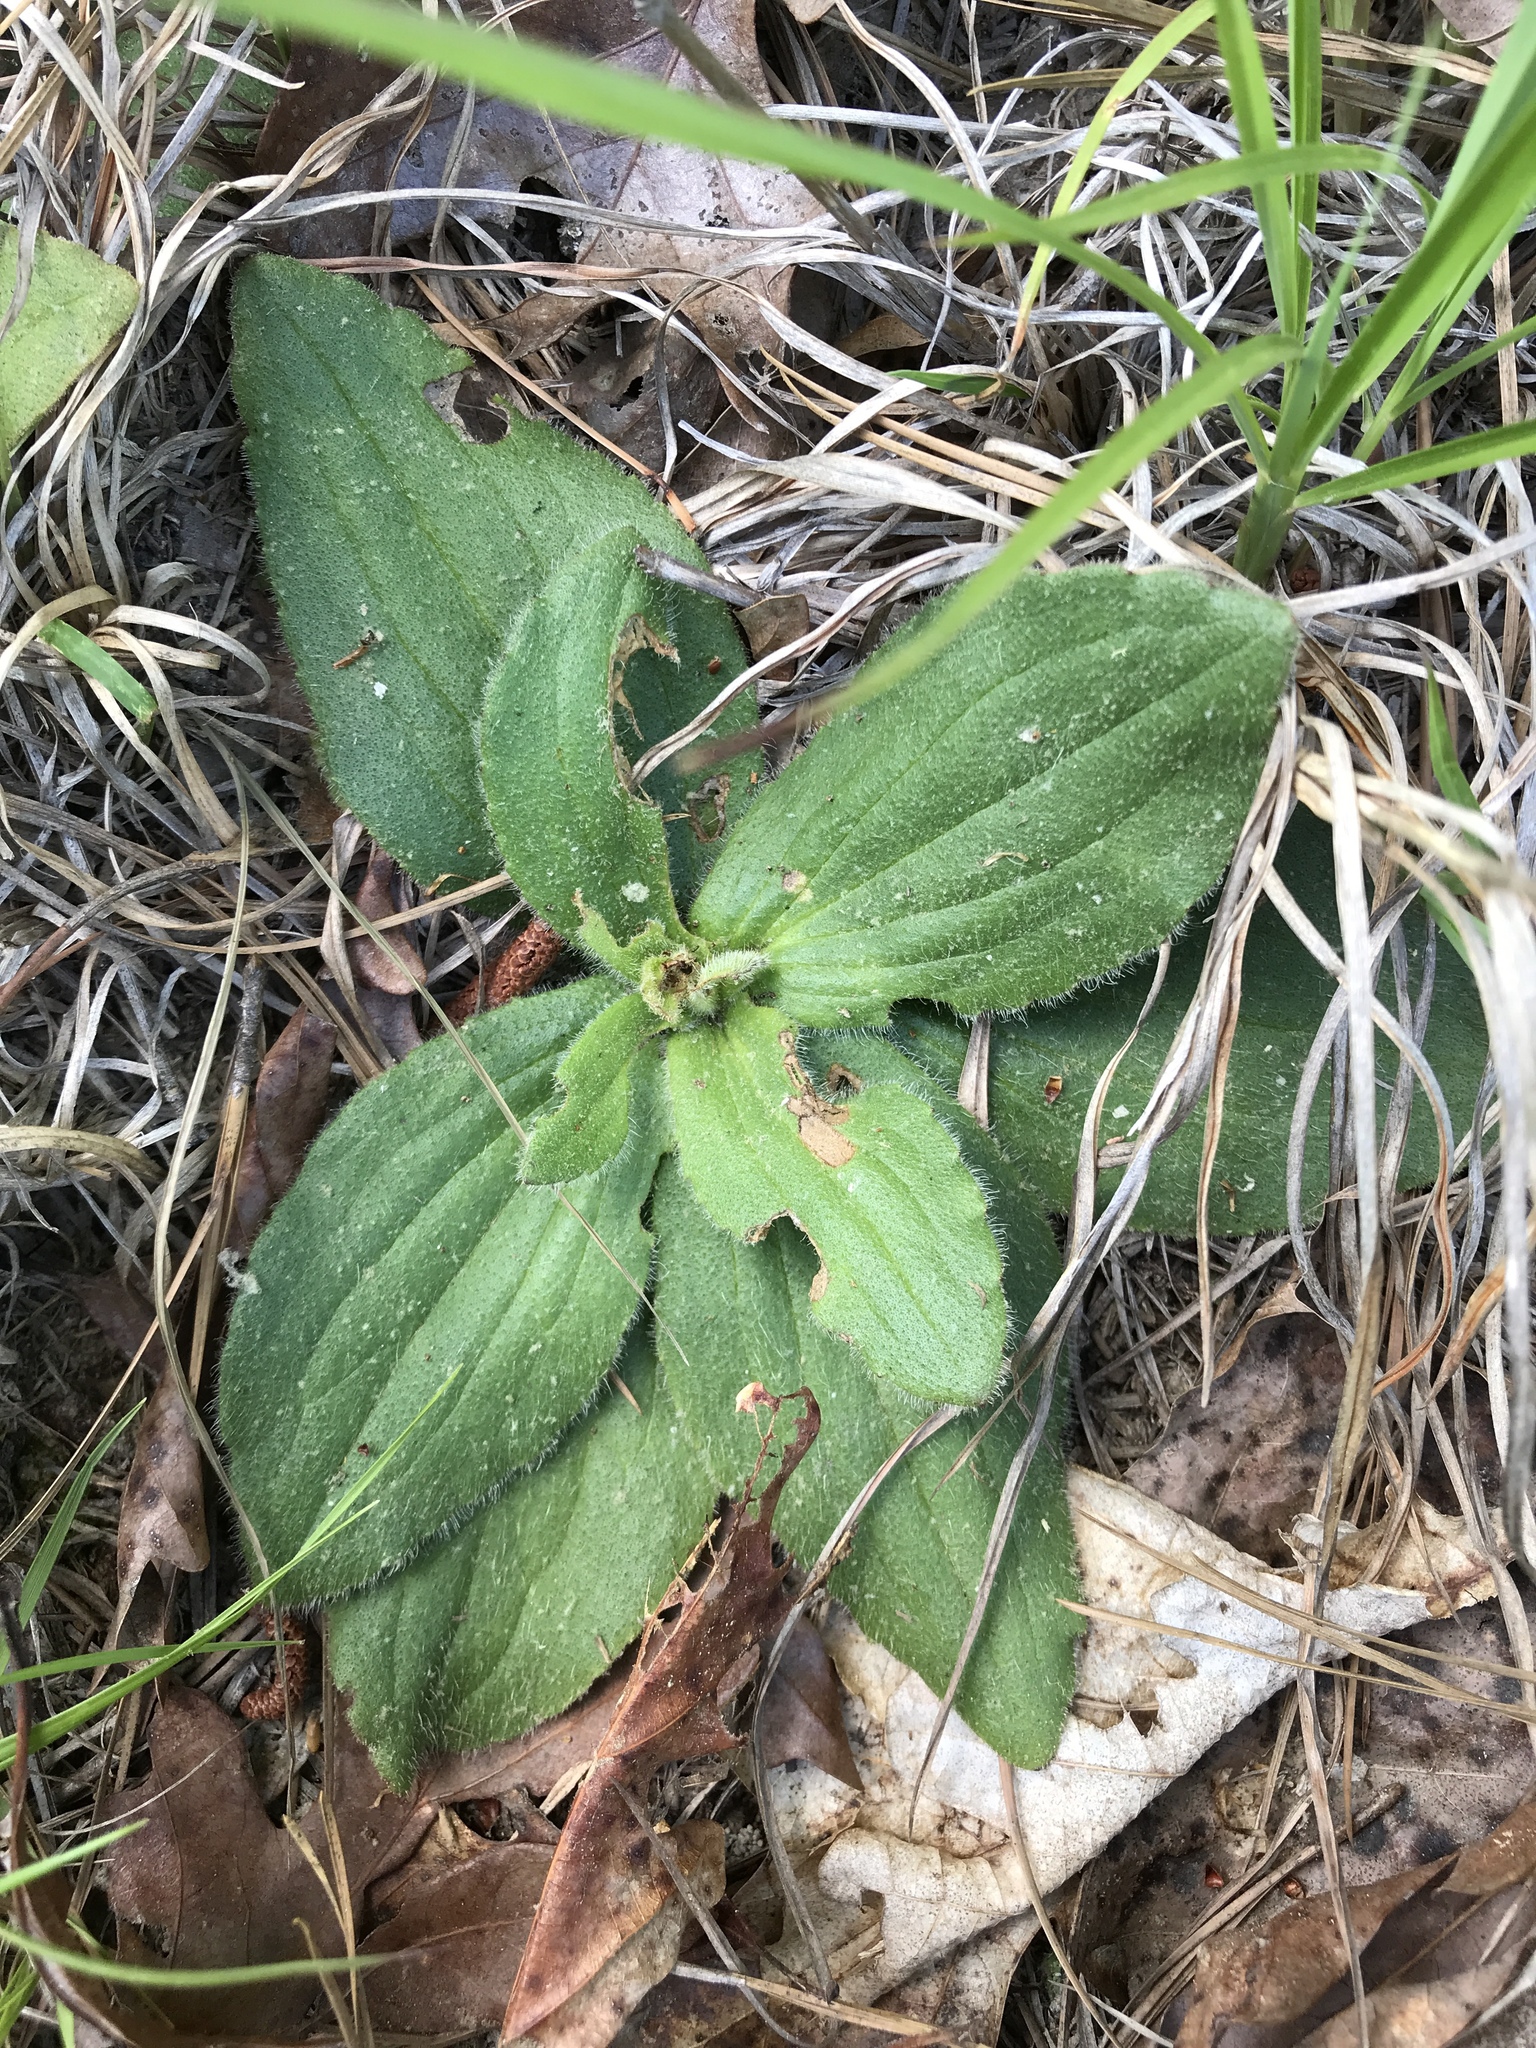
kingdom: Plantae
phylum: Tracheophyta
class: Magnoliopsida
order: Asterales
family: Asteraceae
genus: Arnica
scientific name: Arnica acaulis
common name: Common leopardbane
